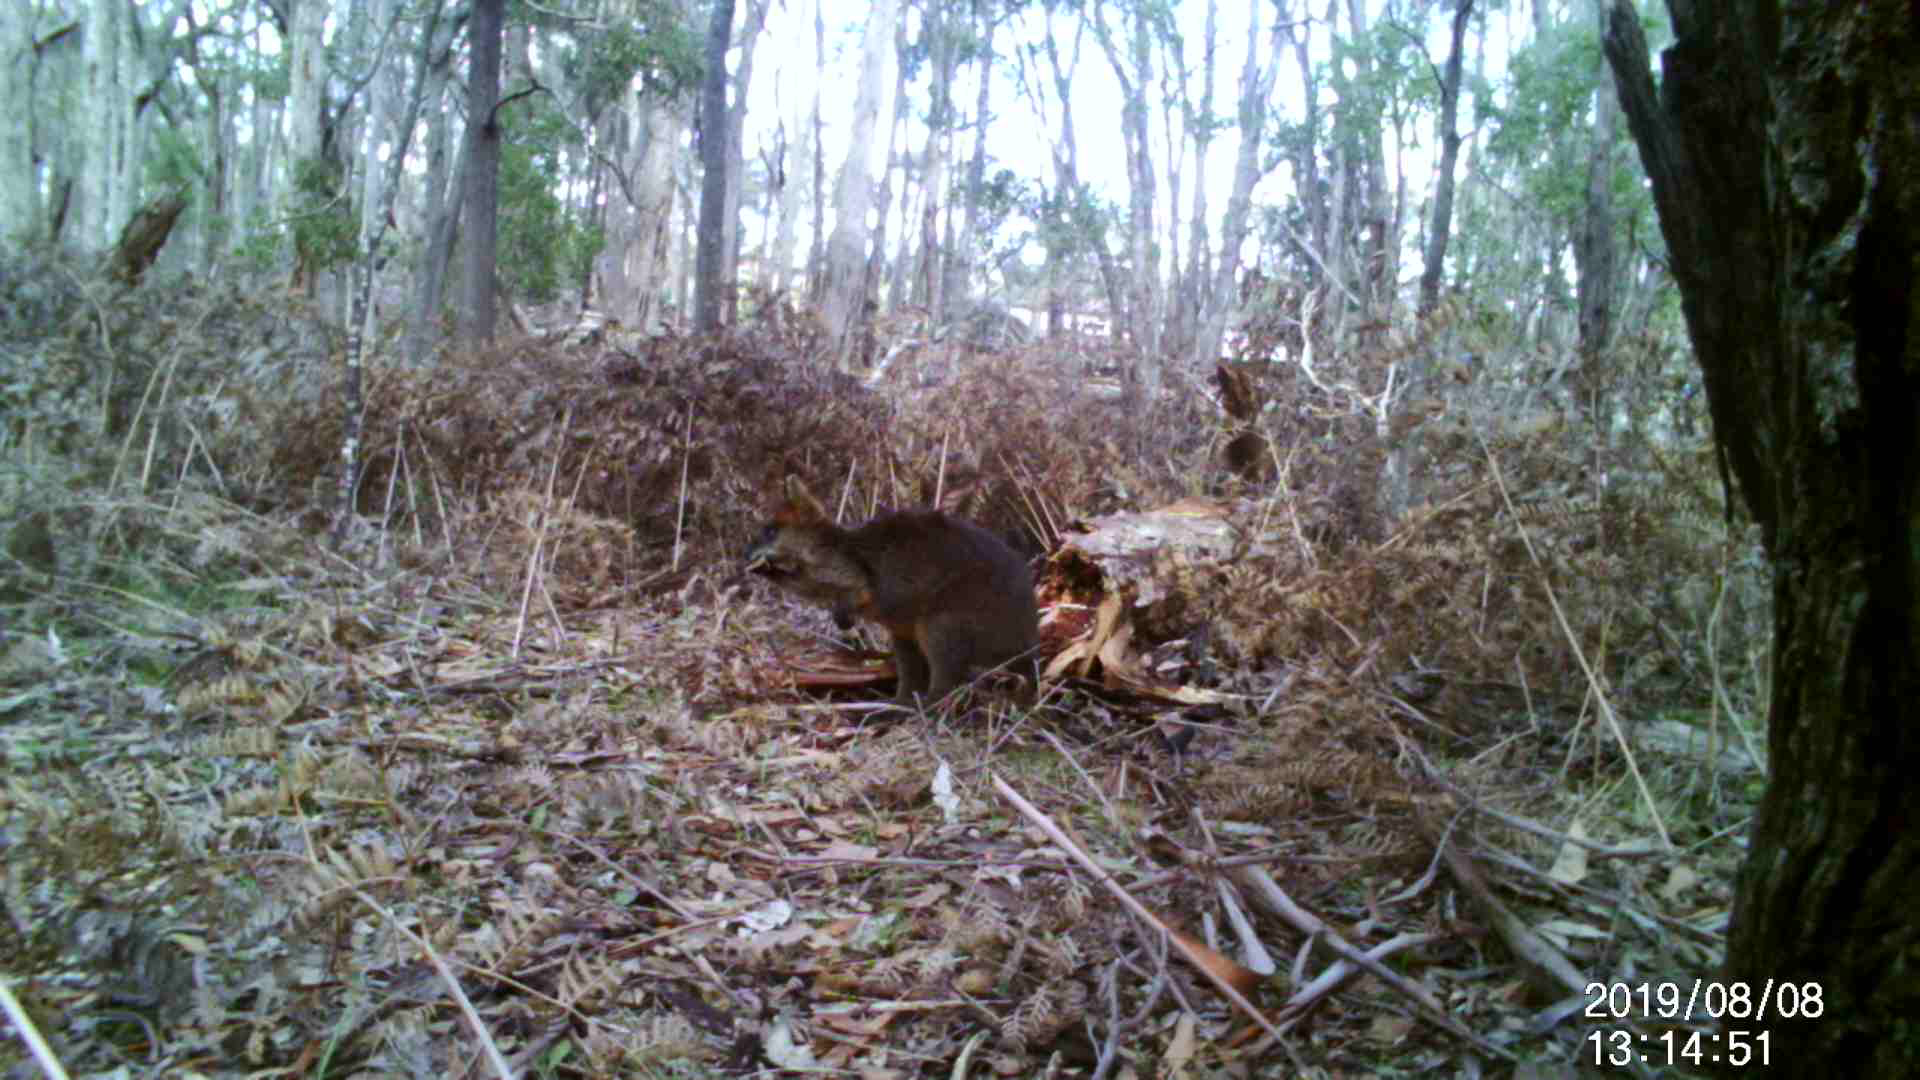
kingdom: Animalia
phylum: Chordata
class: Mammalia
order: Diprotodontia
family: Macropodidae
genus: Wallabia
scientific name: Wallabia bicolor
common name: Swamp wallaby
